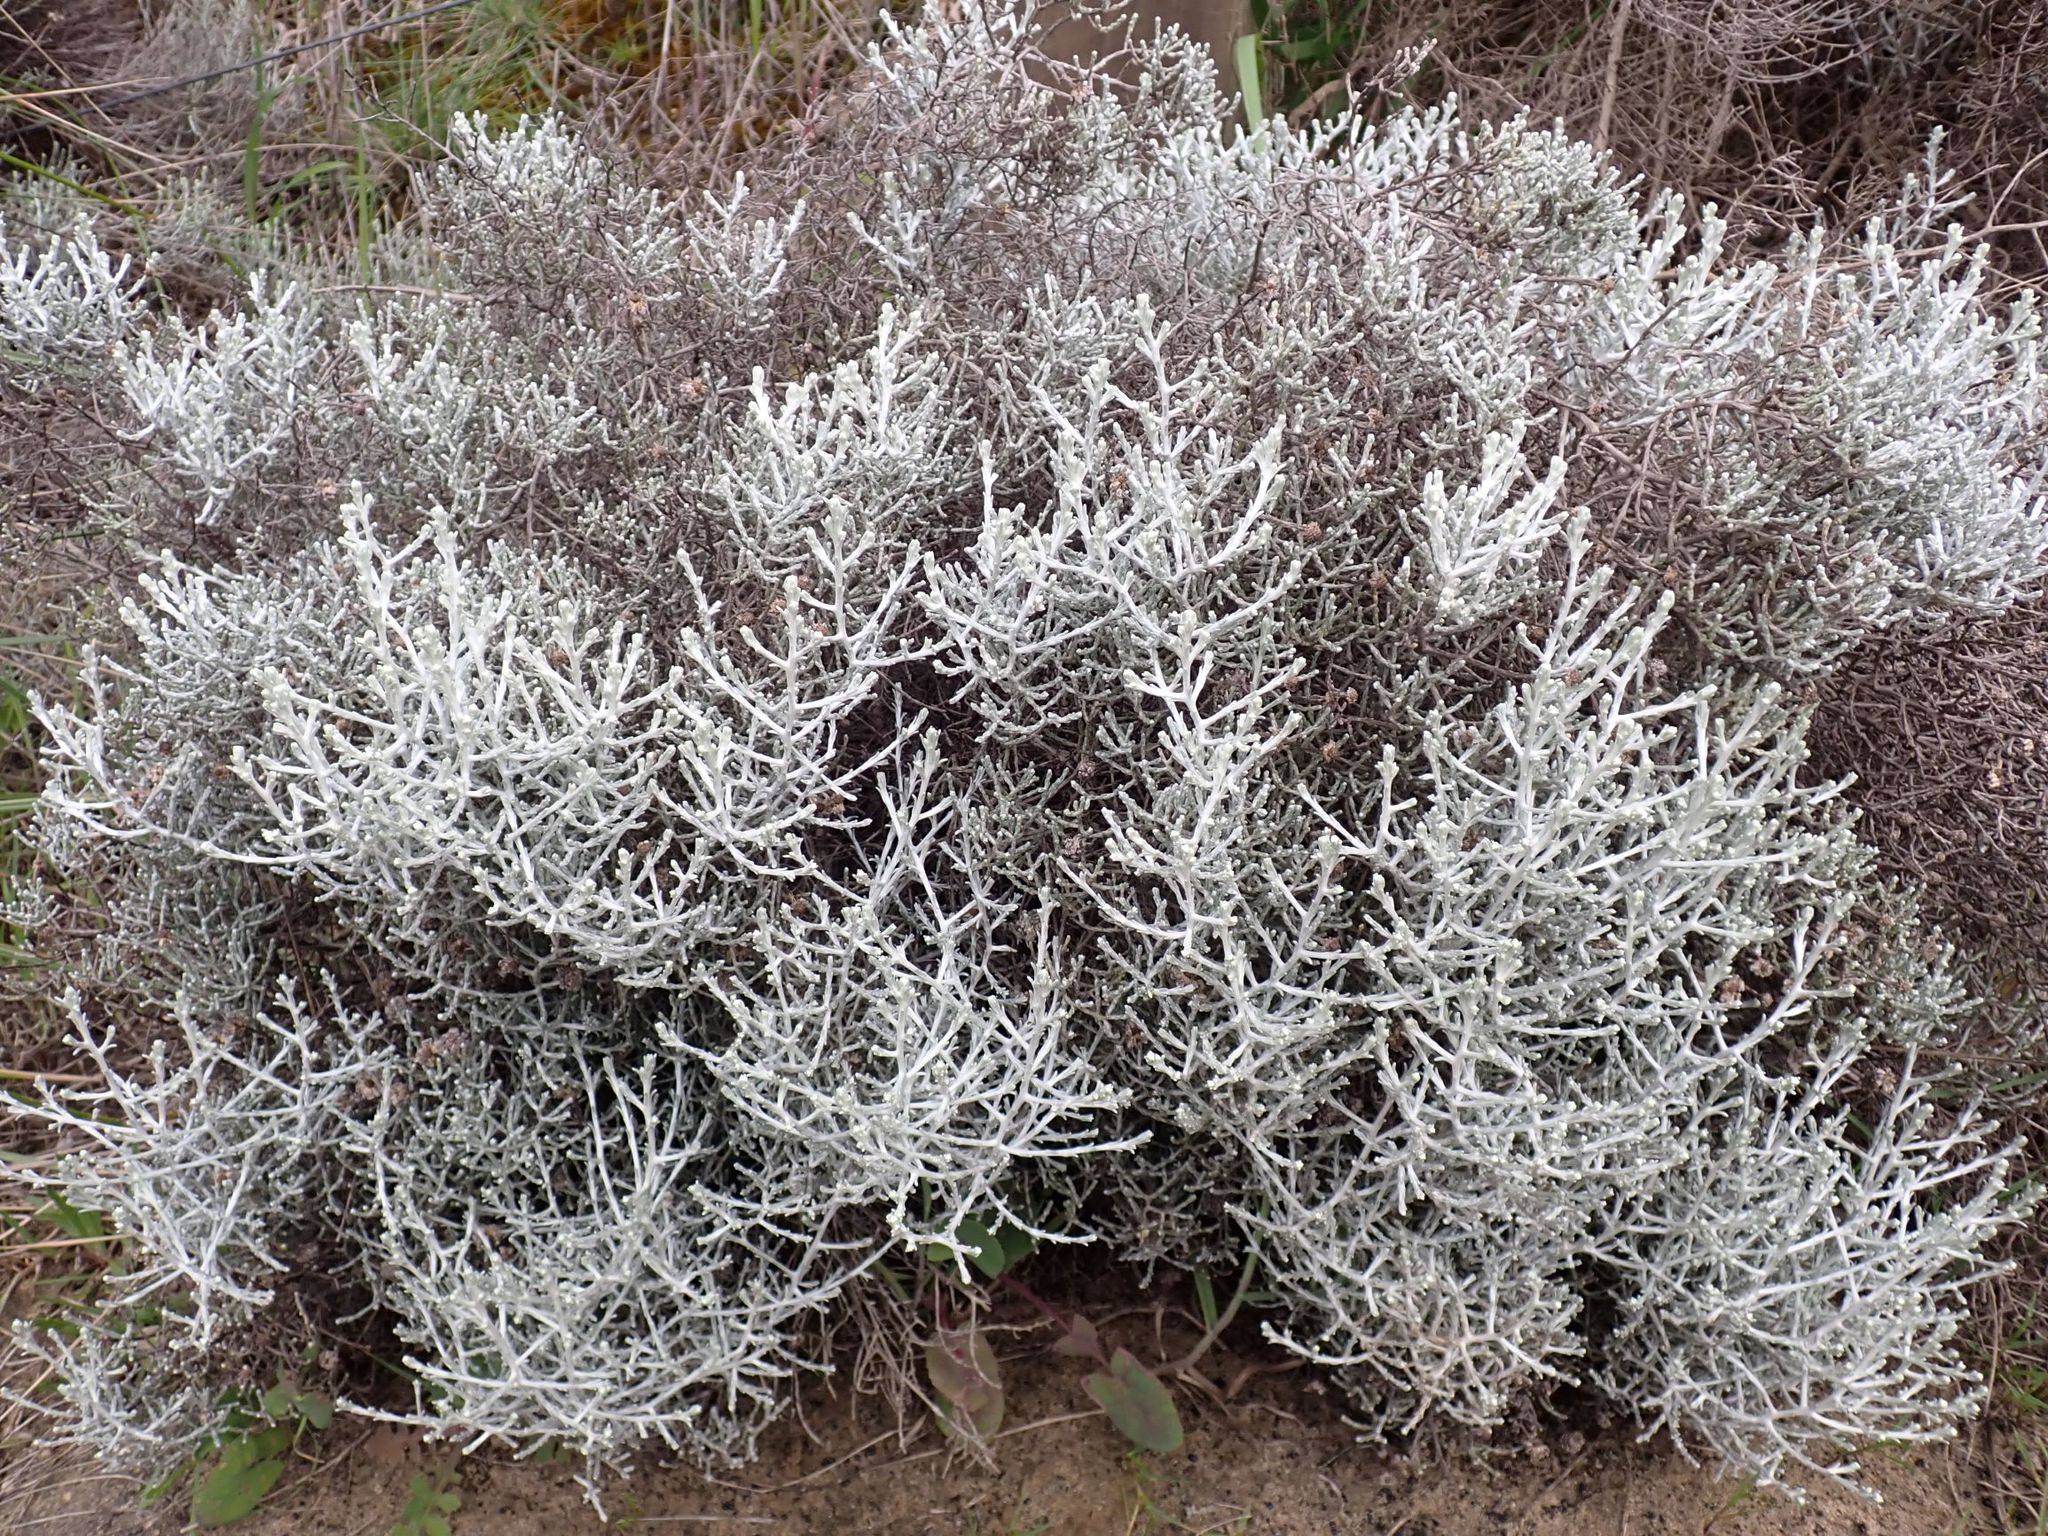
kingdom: Plantae
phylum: Tracheophyta
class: Magnoliopsida
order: Asterales
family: Asteraceae
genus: Calocephalus
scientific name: Calocephalus brownii
